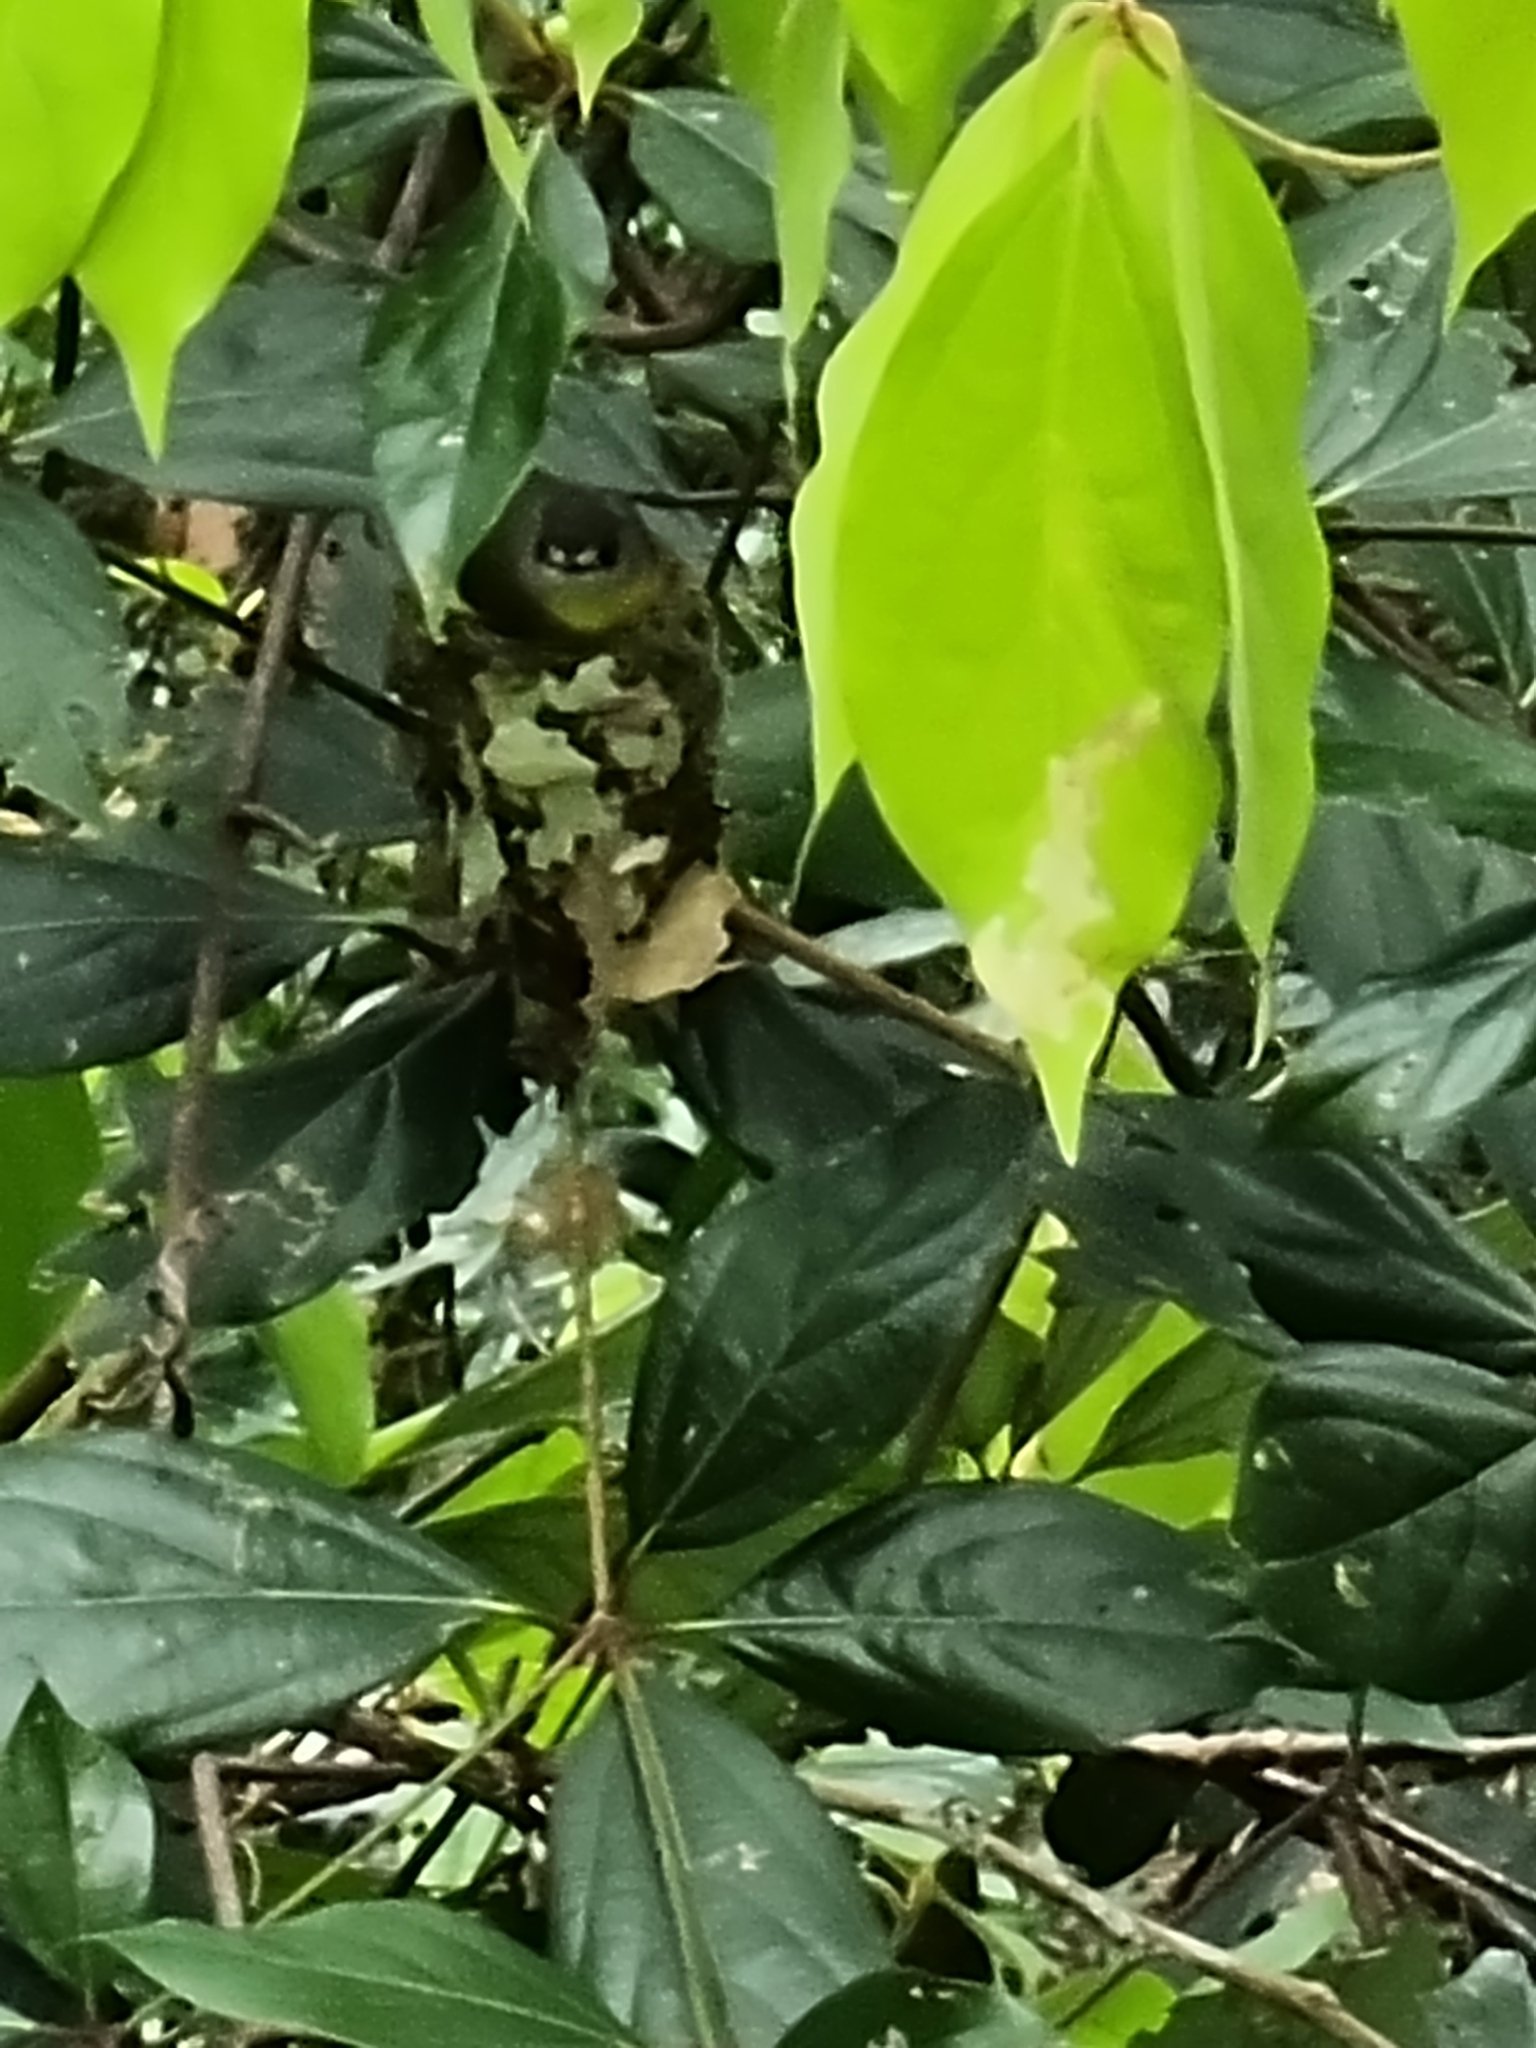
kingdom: Animalia
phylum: Chordata
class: Aves
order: Passeriformes
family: Petroicidae
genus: Eopsaltria
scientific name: Eopsaltria
